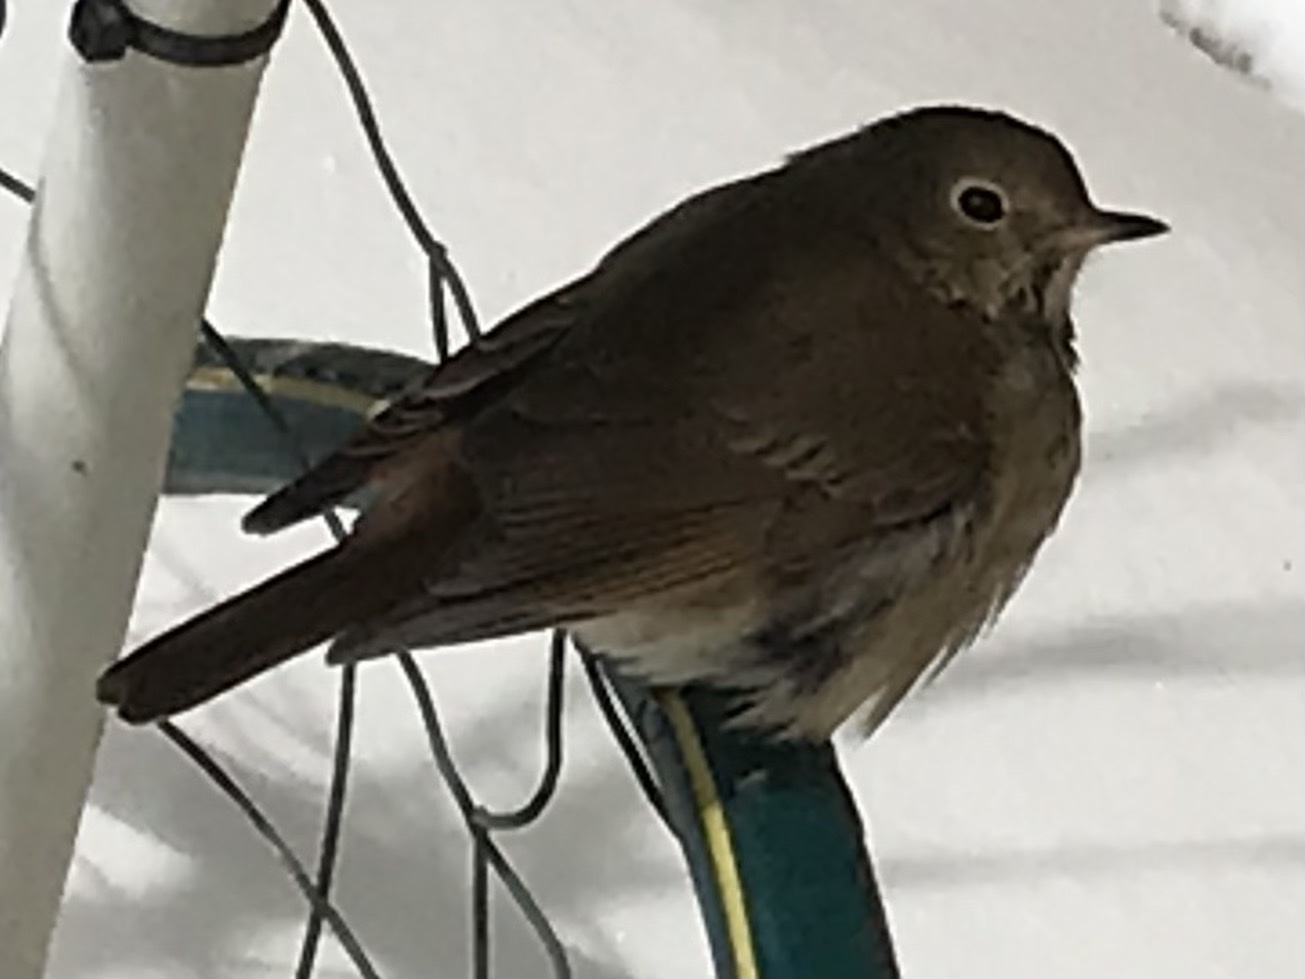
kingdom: Animalia
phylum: Chordata
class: Aves
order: Passeriformes
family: Turdidae
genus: Catharus
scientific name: Catharus guttatus
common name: Hermit thrush
